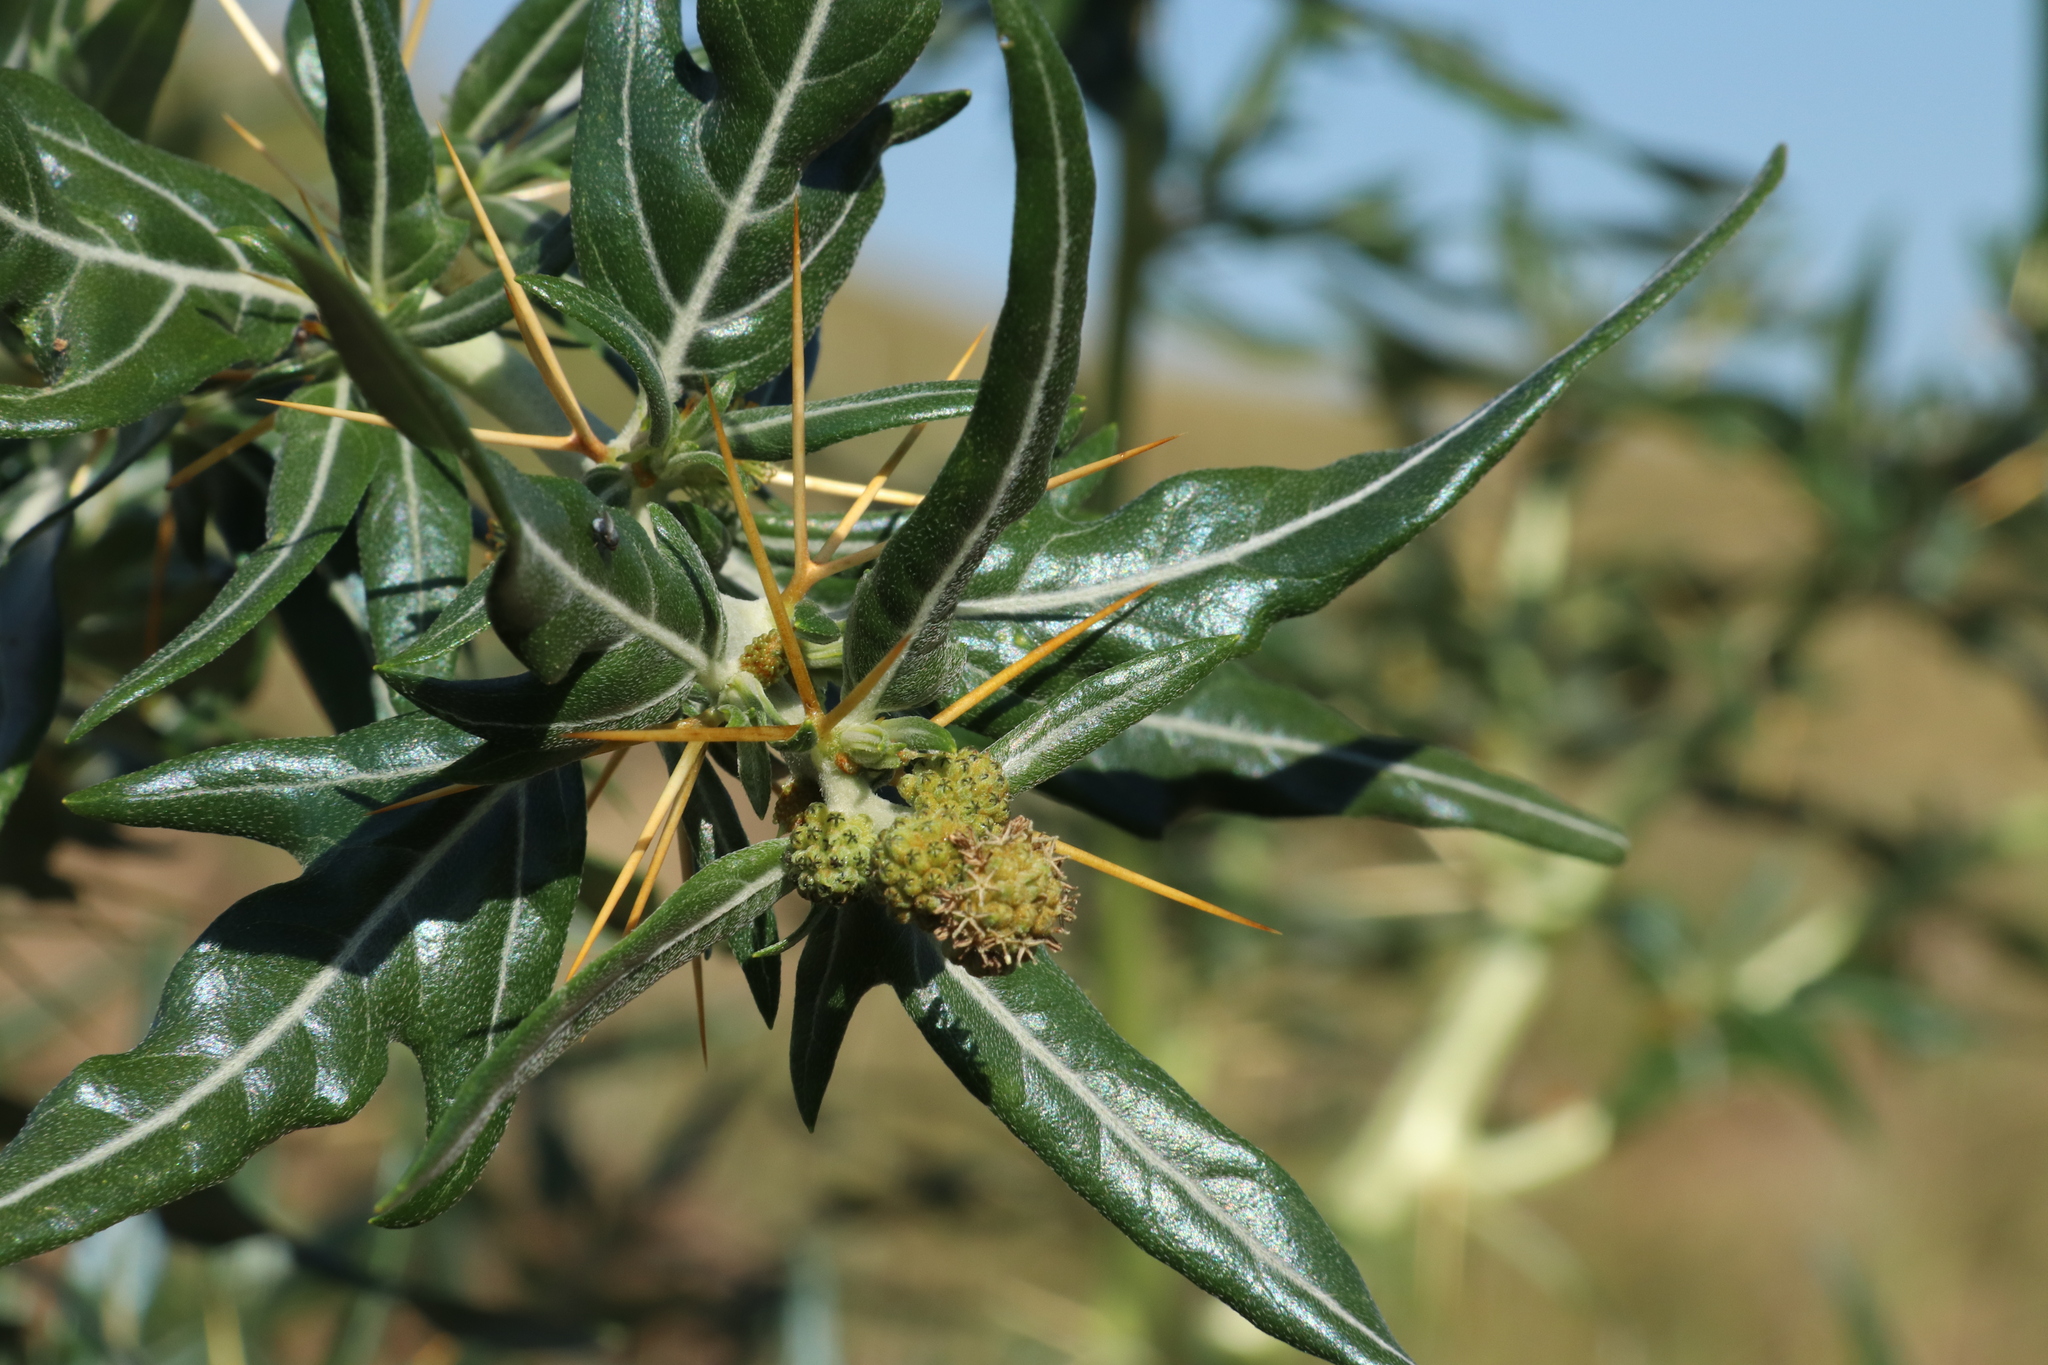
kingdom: Plantae
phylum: Tracheophyta
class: Magnoliopsida
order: Asterales
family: Asteraceae
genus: Xanthium
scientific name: Xanthium spinosum
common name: Spiny cocklebur
